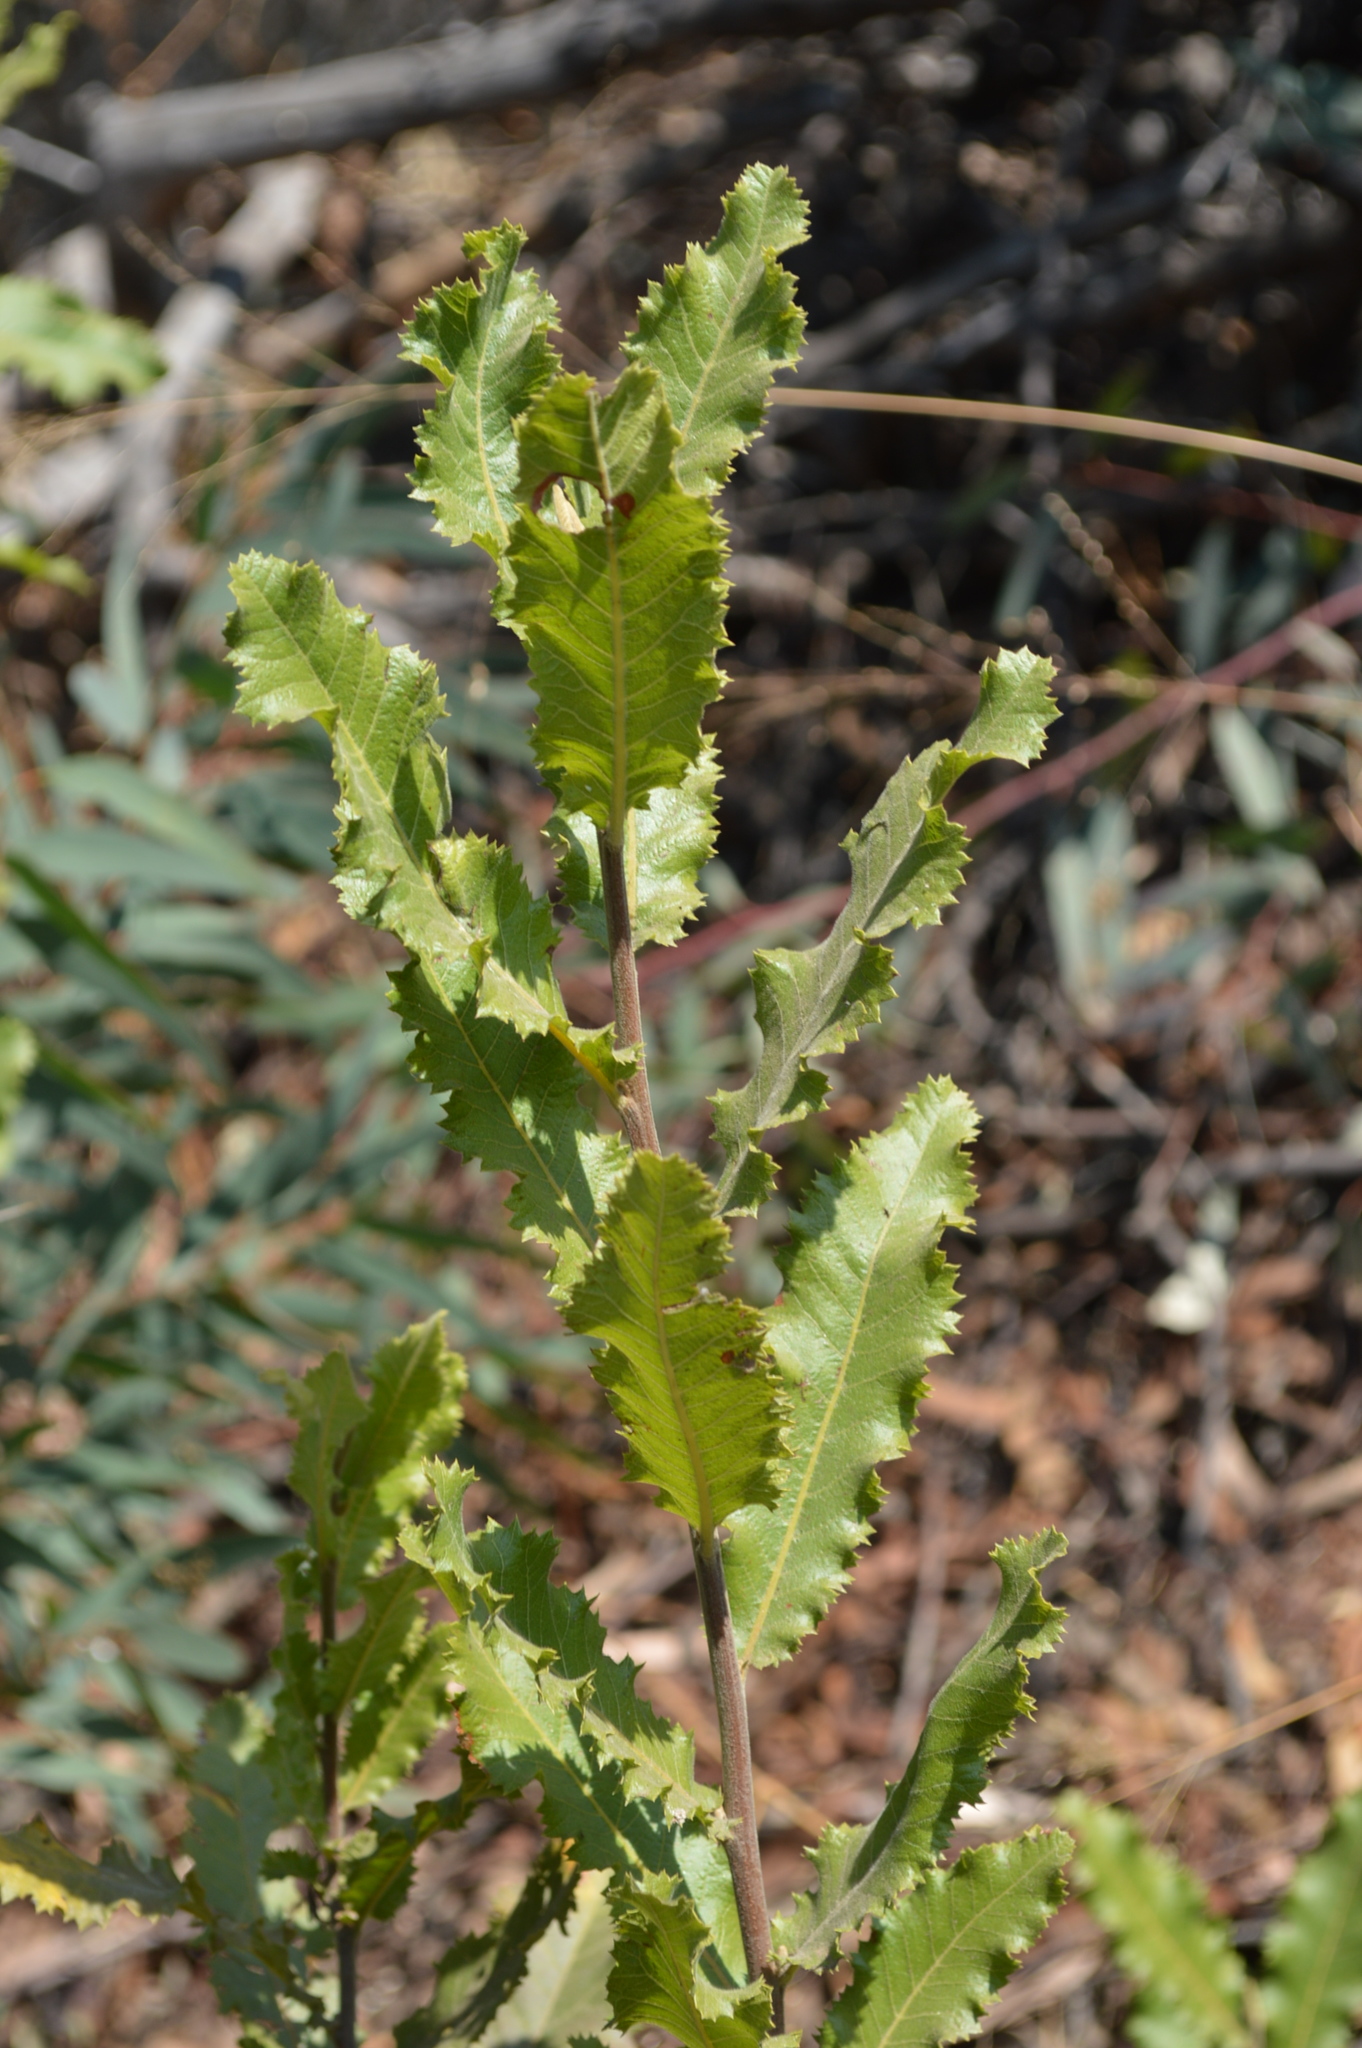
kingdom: Plantae
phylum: Tracheophyta
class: Magnoliopsida
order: Sapindales
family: Sapindaceae
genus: Pappea
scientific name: Pappea capensis
